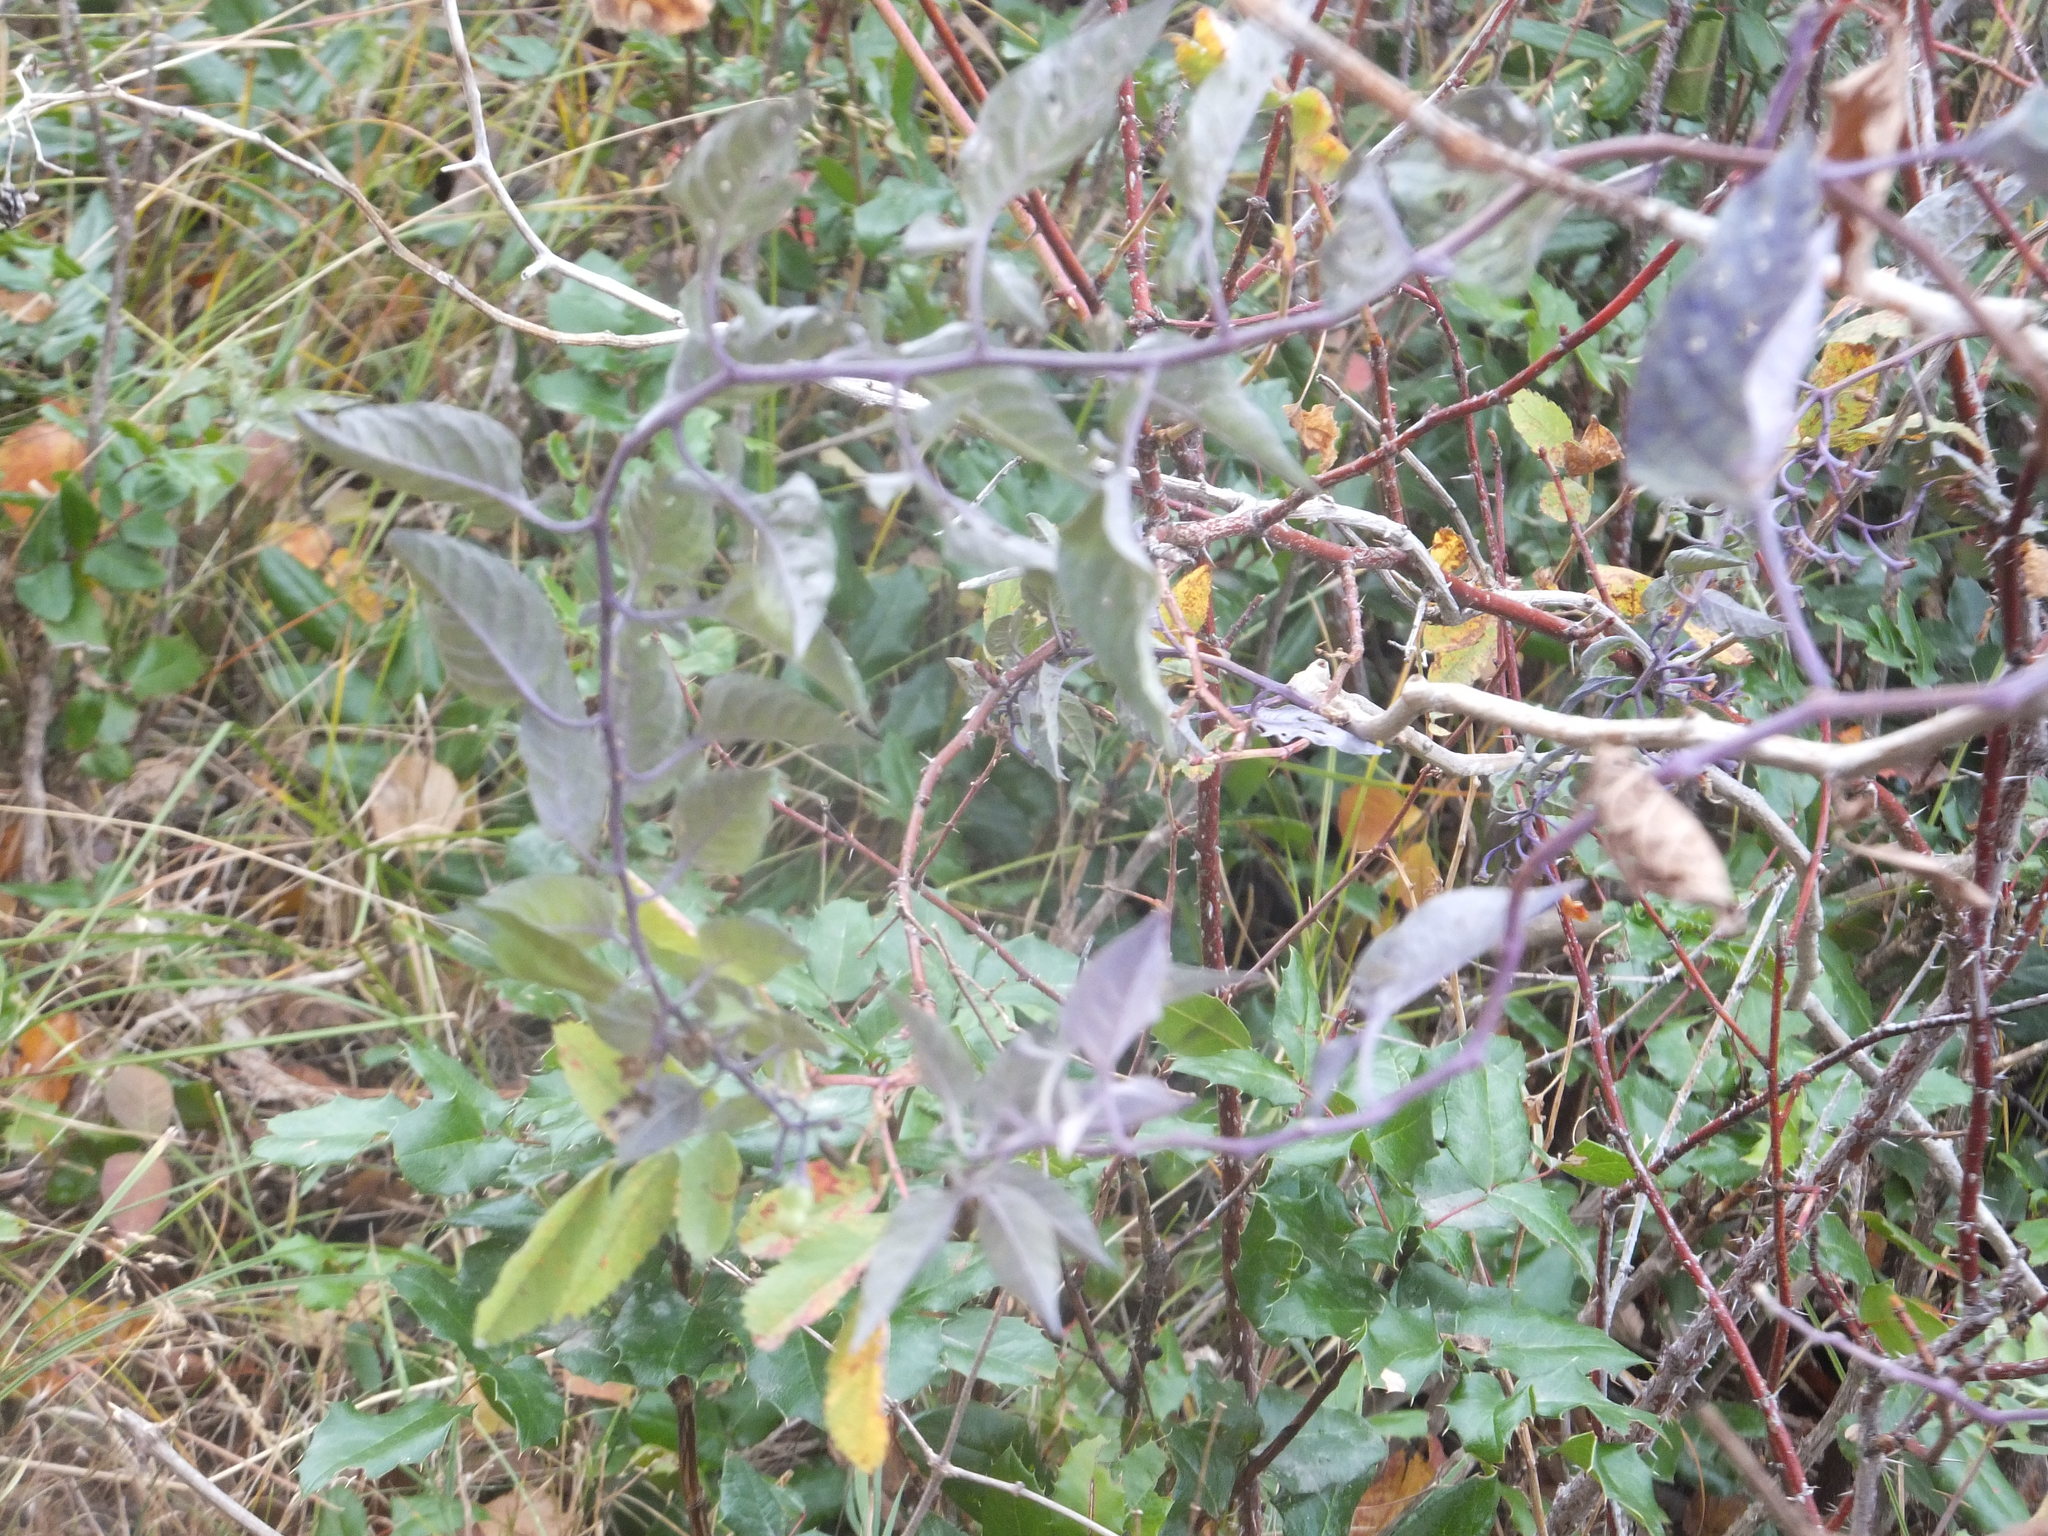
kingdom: Plantae
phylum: Tracheophyta
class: Magnoliopsida
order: Solanales
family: Solanaceae
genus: Solanum
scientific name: Solanum dulcamara
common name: Climbing nightshade
